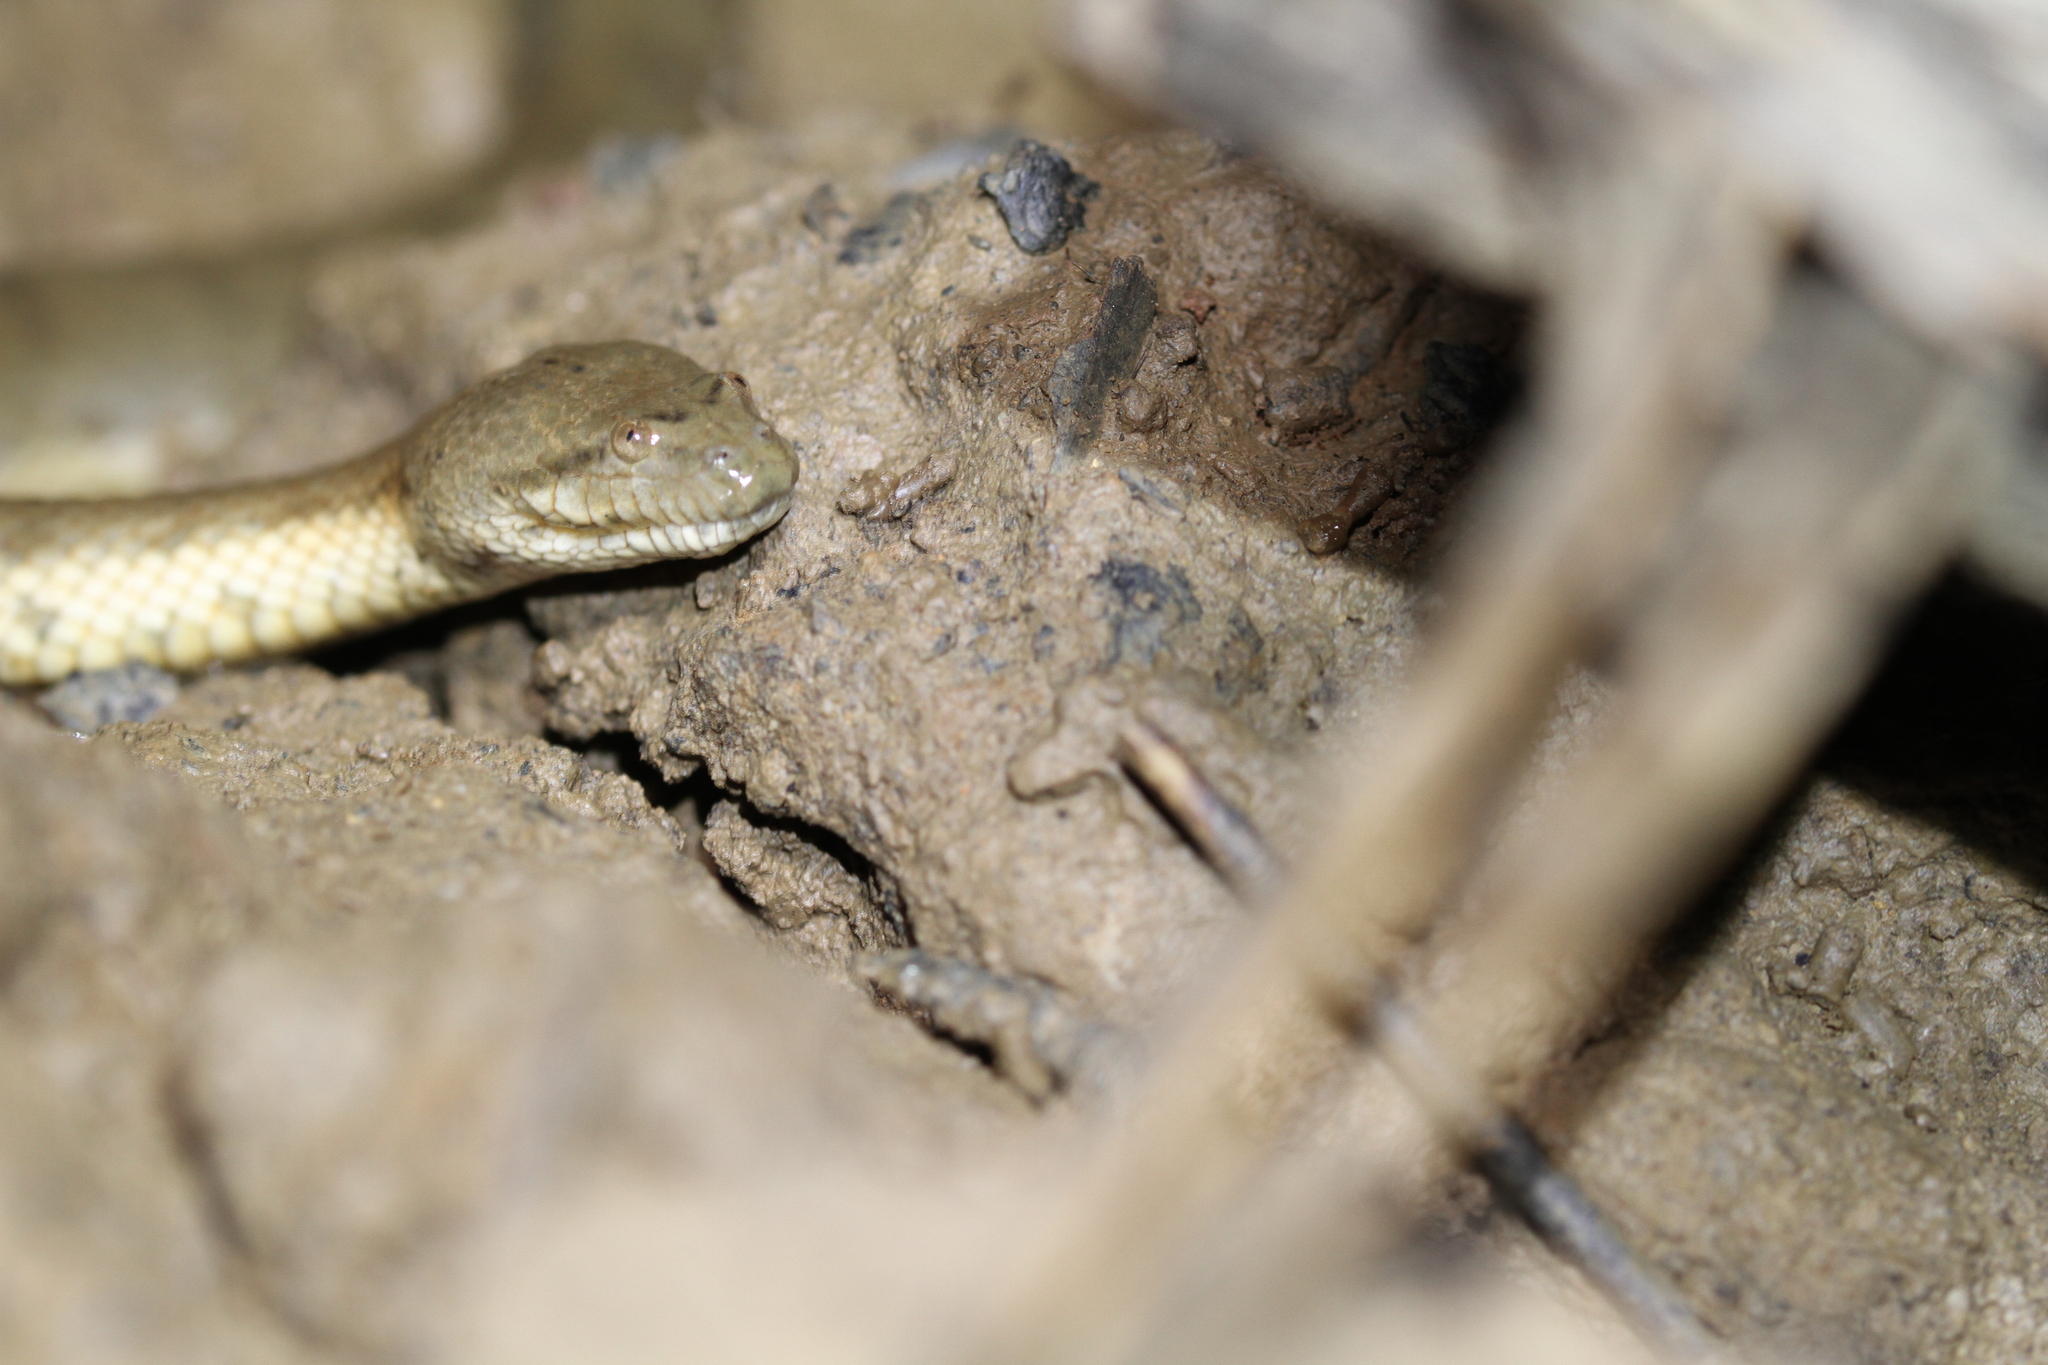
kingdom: Animalia
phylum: Chordata
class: Squamata
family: Homalopsidae
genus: Cerberus
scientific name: Cerberus schneiderii
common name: Southeast asian bockadam
